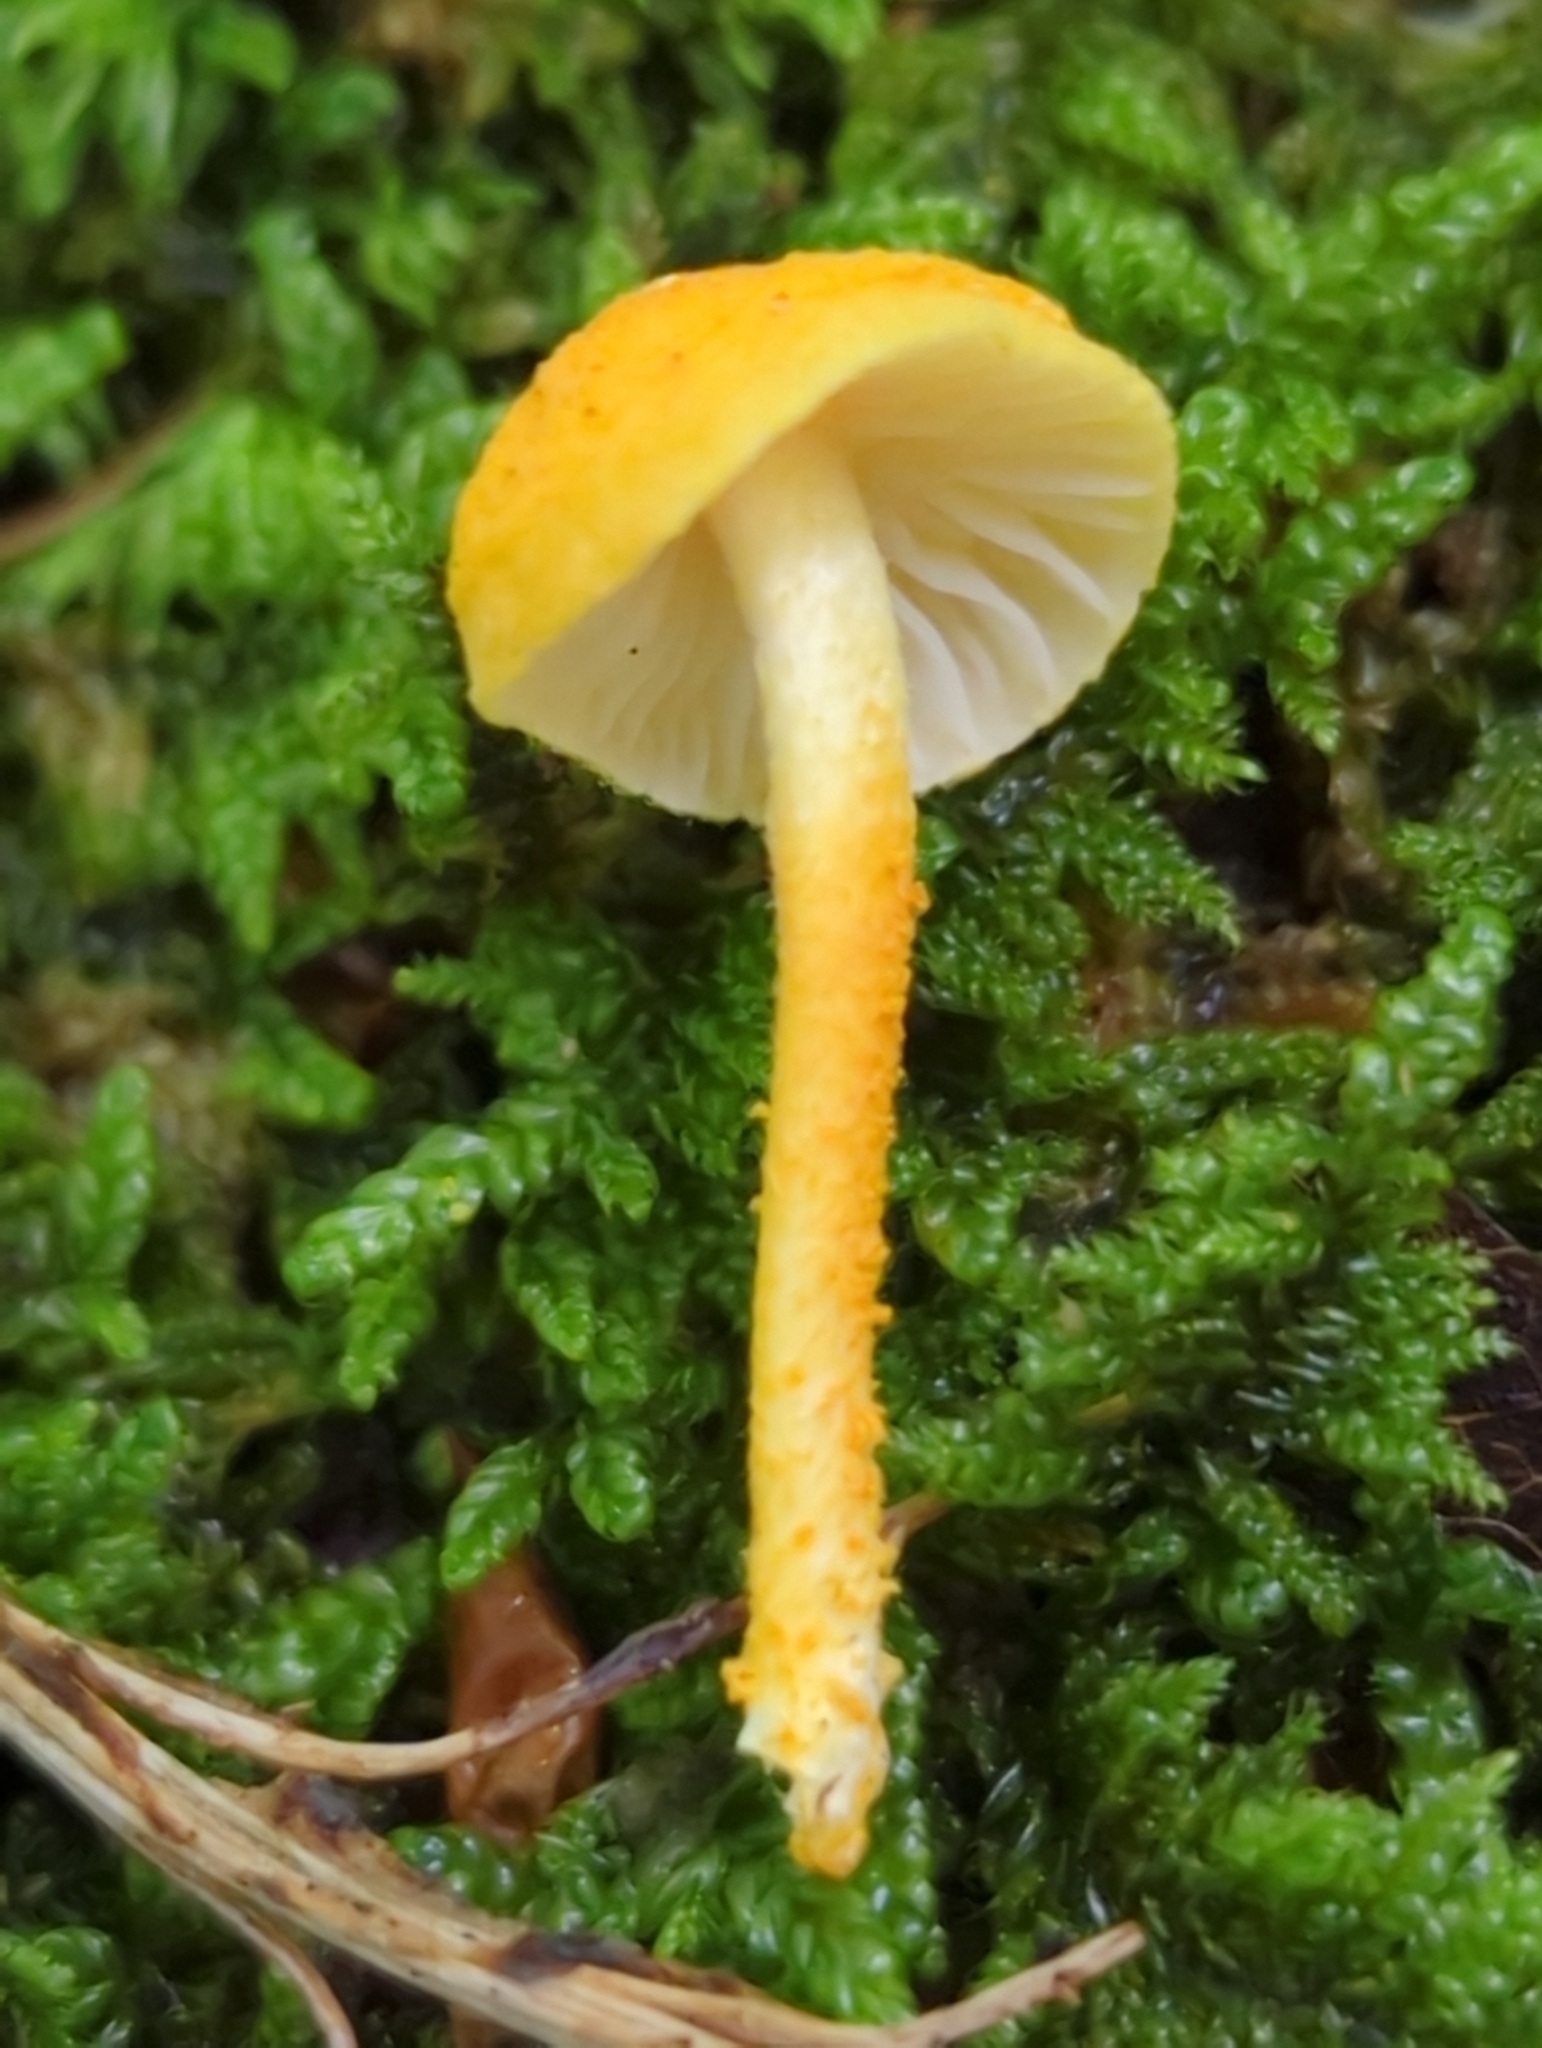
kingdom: Fungi
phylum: Basidiomycota
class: Agaricomycetes
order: Agaricales
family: Physalacriaceae
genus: Cyptotrama
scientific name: Cyptotrama chrysopepla
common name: Golden coincap
